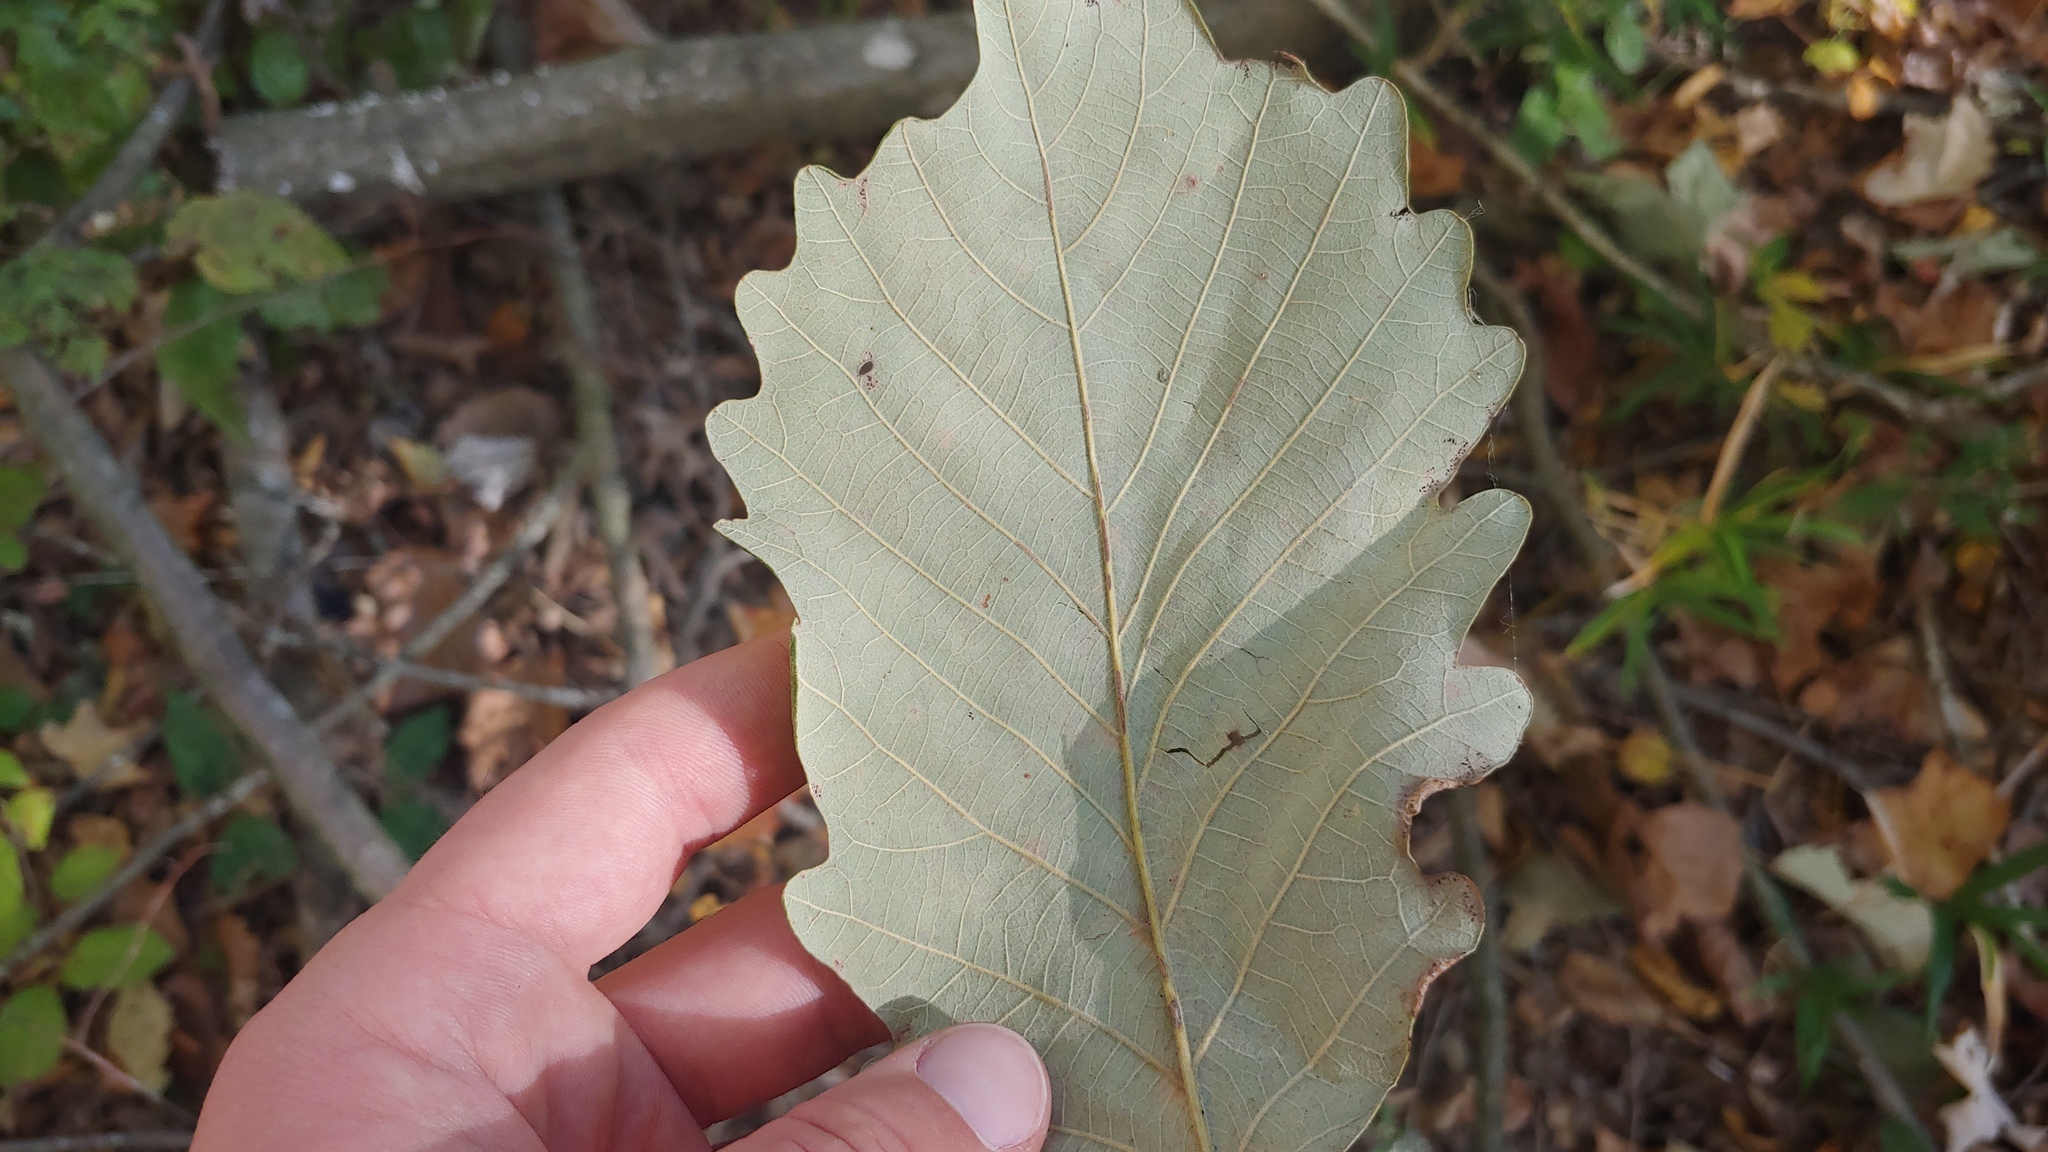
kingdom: Plantae
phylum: Tracheophyta
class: Magnoliopsida
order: Fagales
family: Fagaceae
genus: Quercus
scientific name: Quercus bicolor
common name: Swamp white oak
